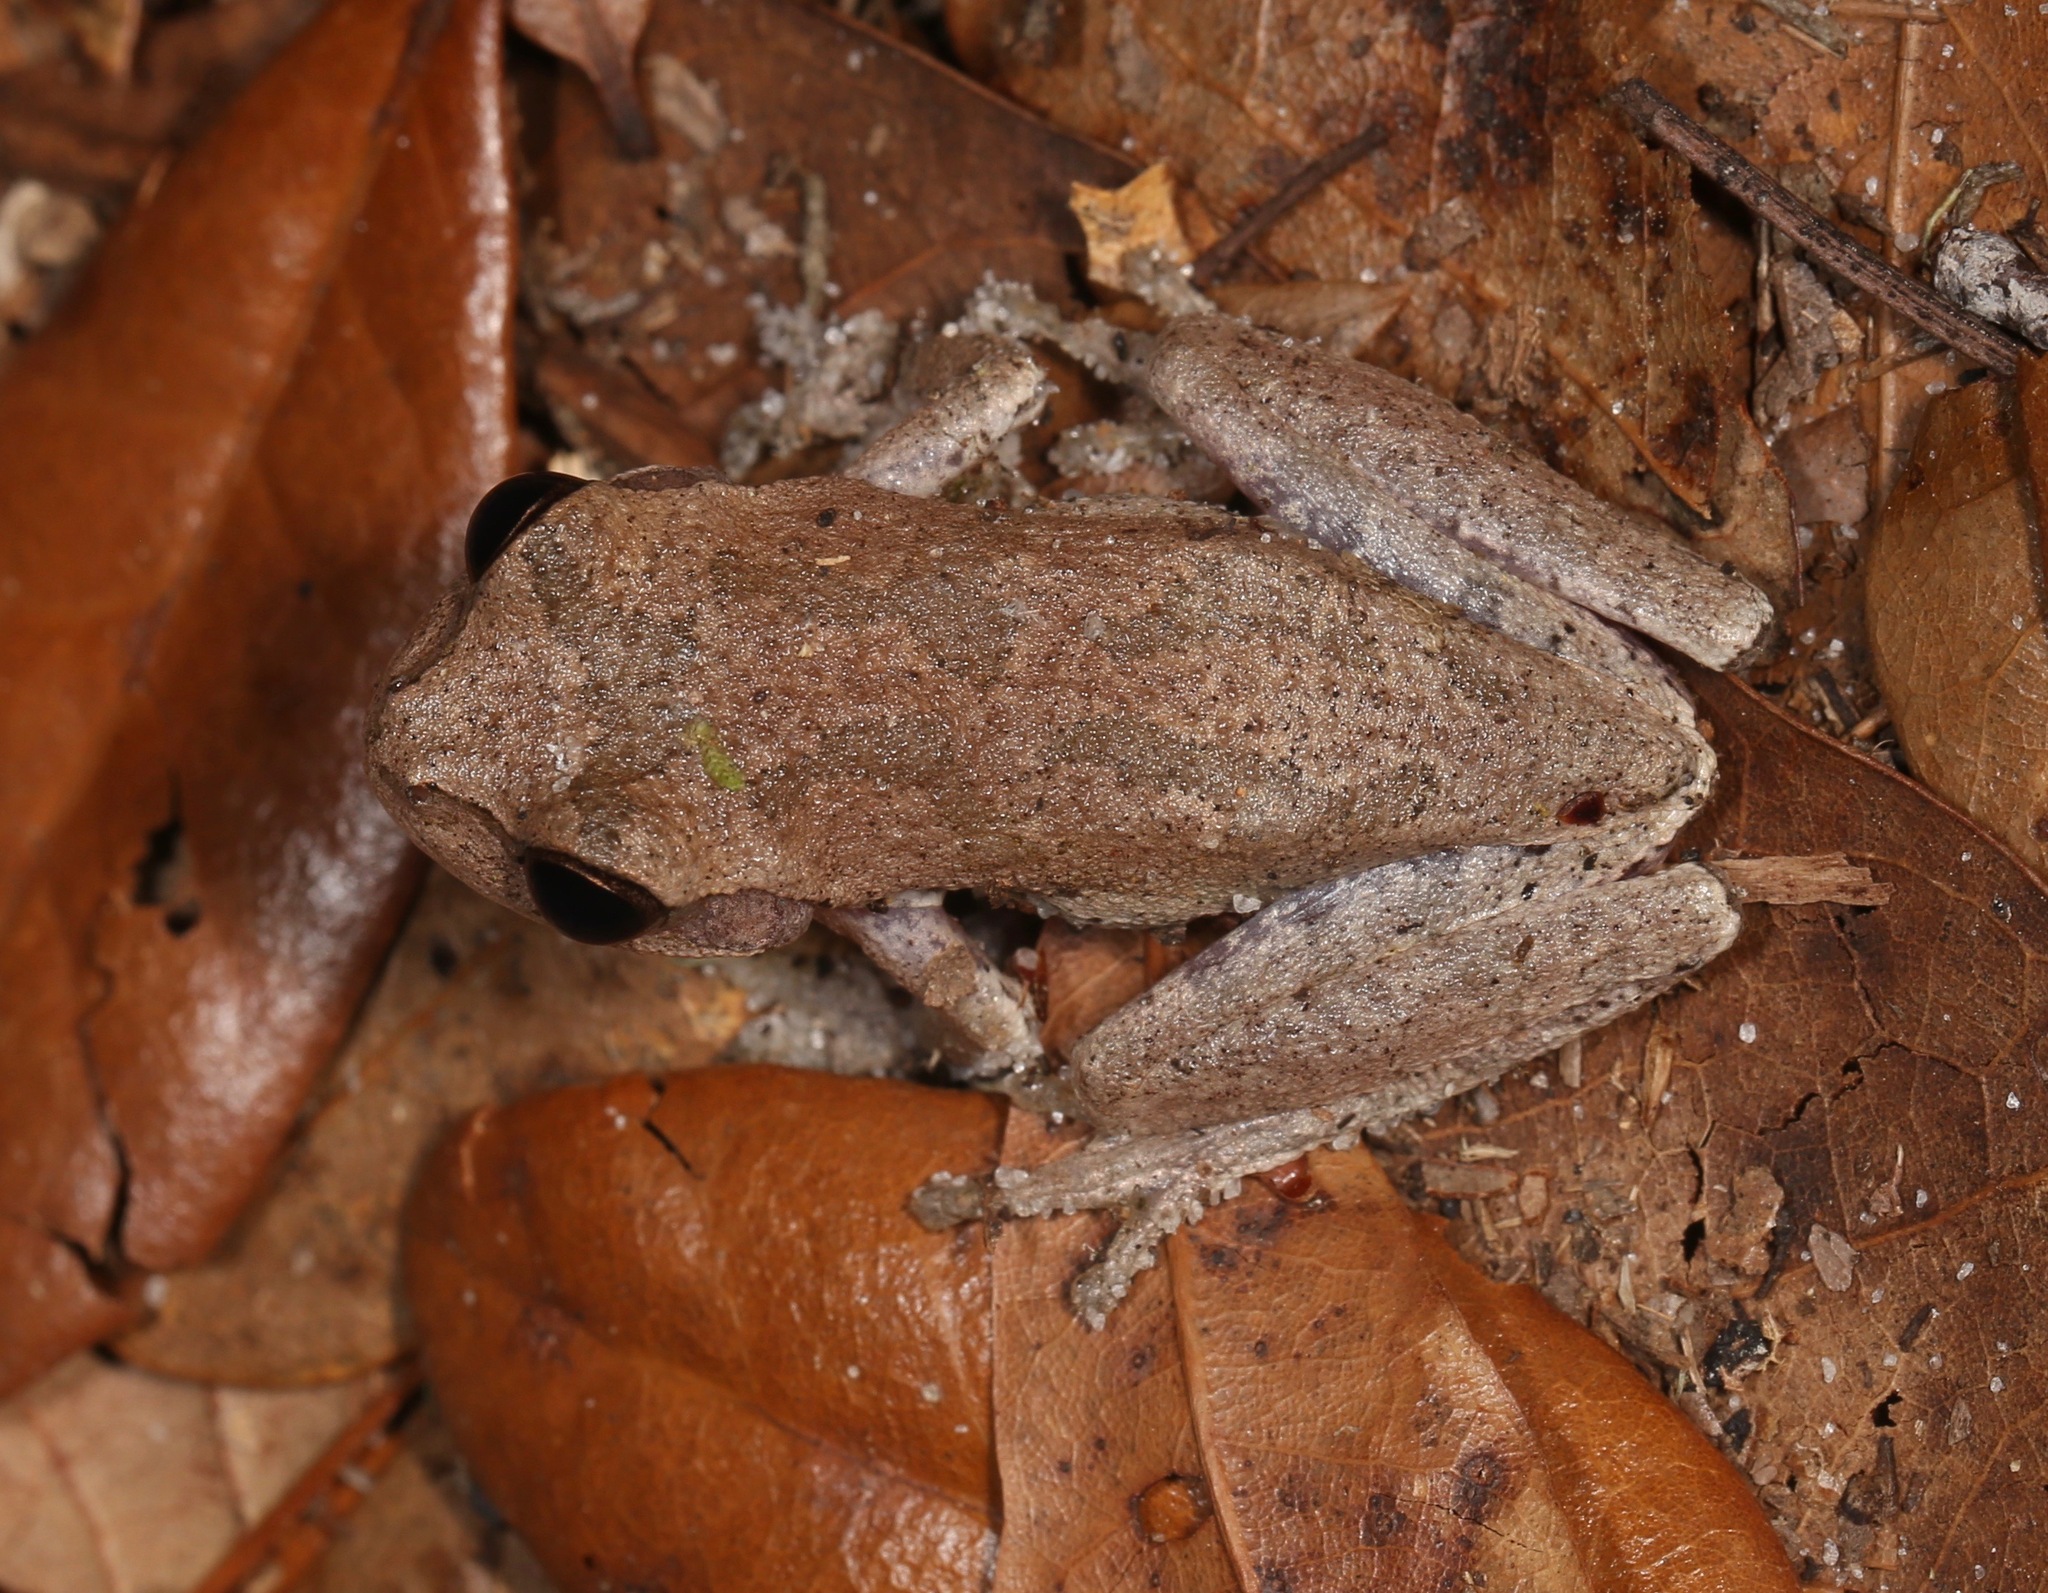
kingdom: Animalia
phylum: Chordata
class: Amphibia
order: Anura
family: Hylidae
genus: Hyla
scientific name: Hyla femoralis
